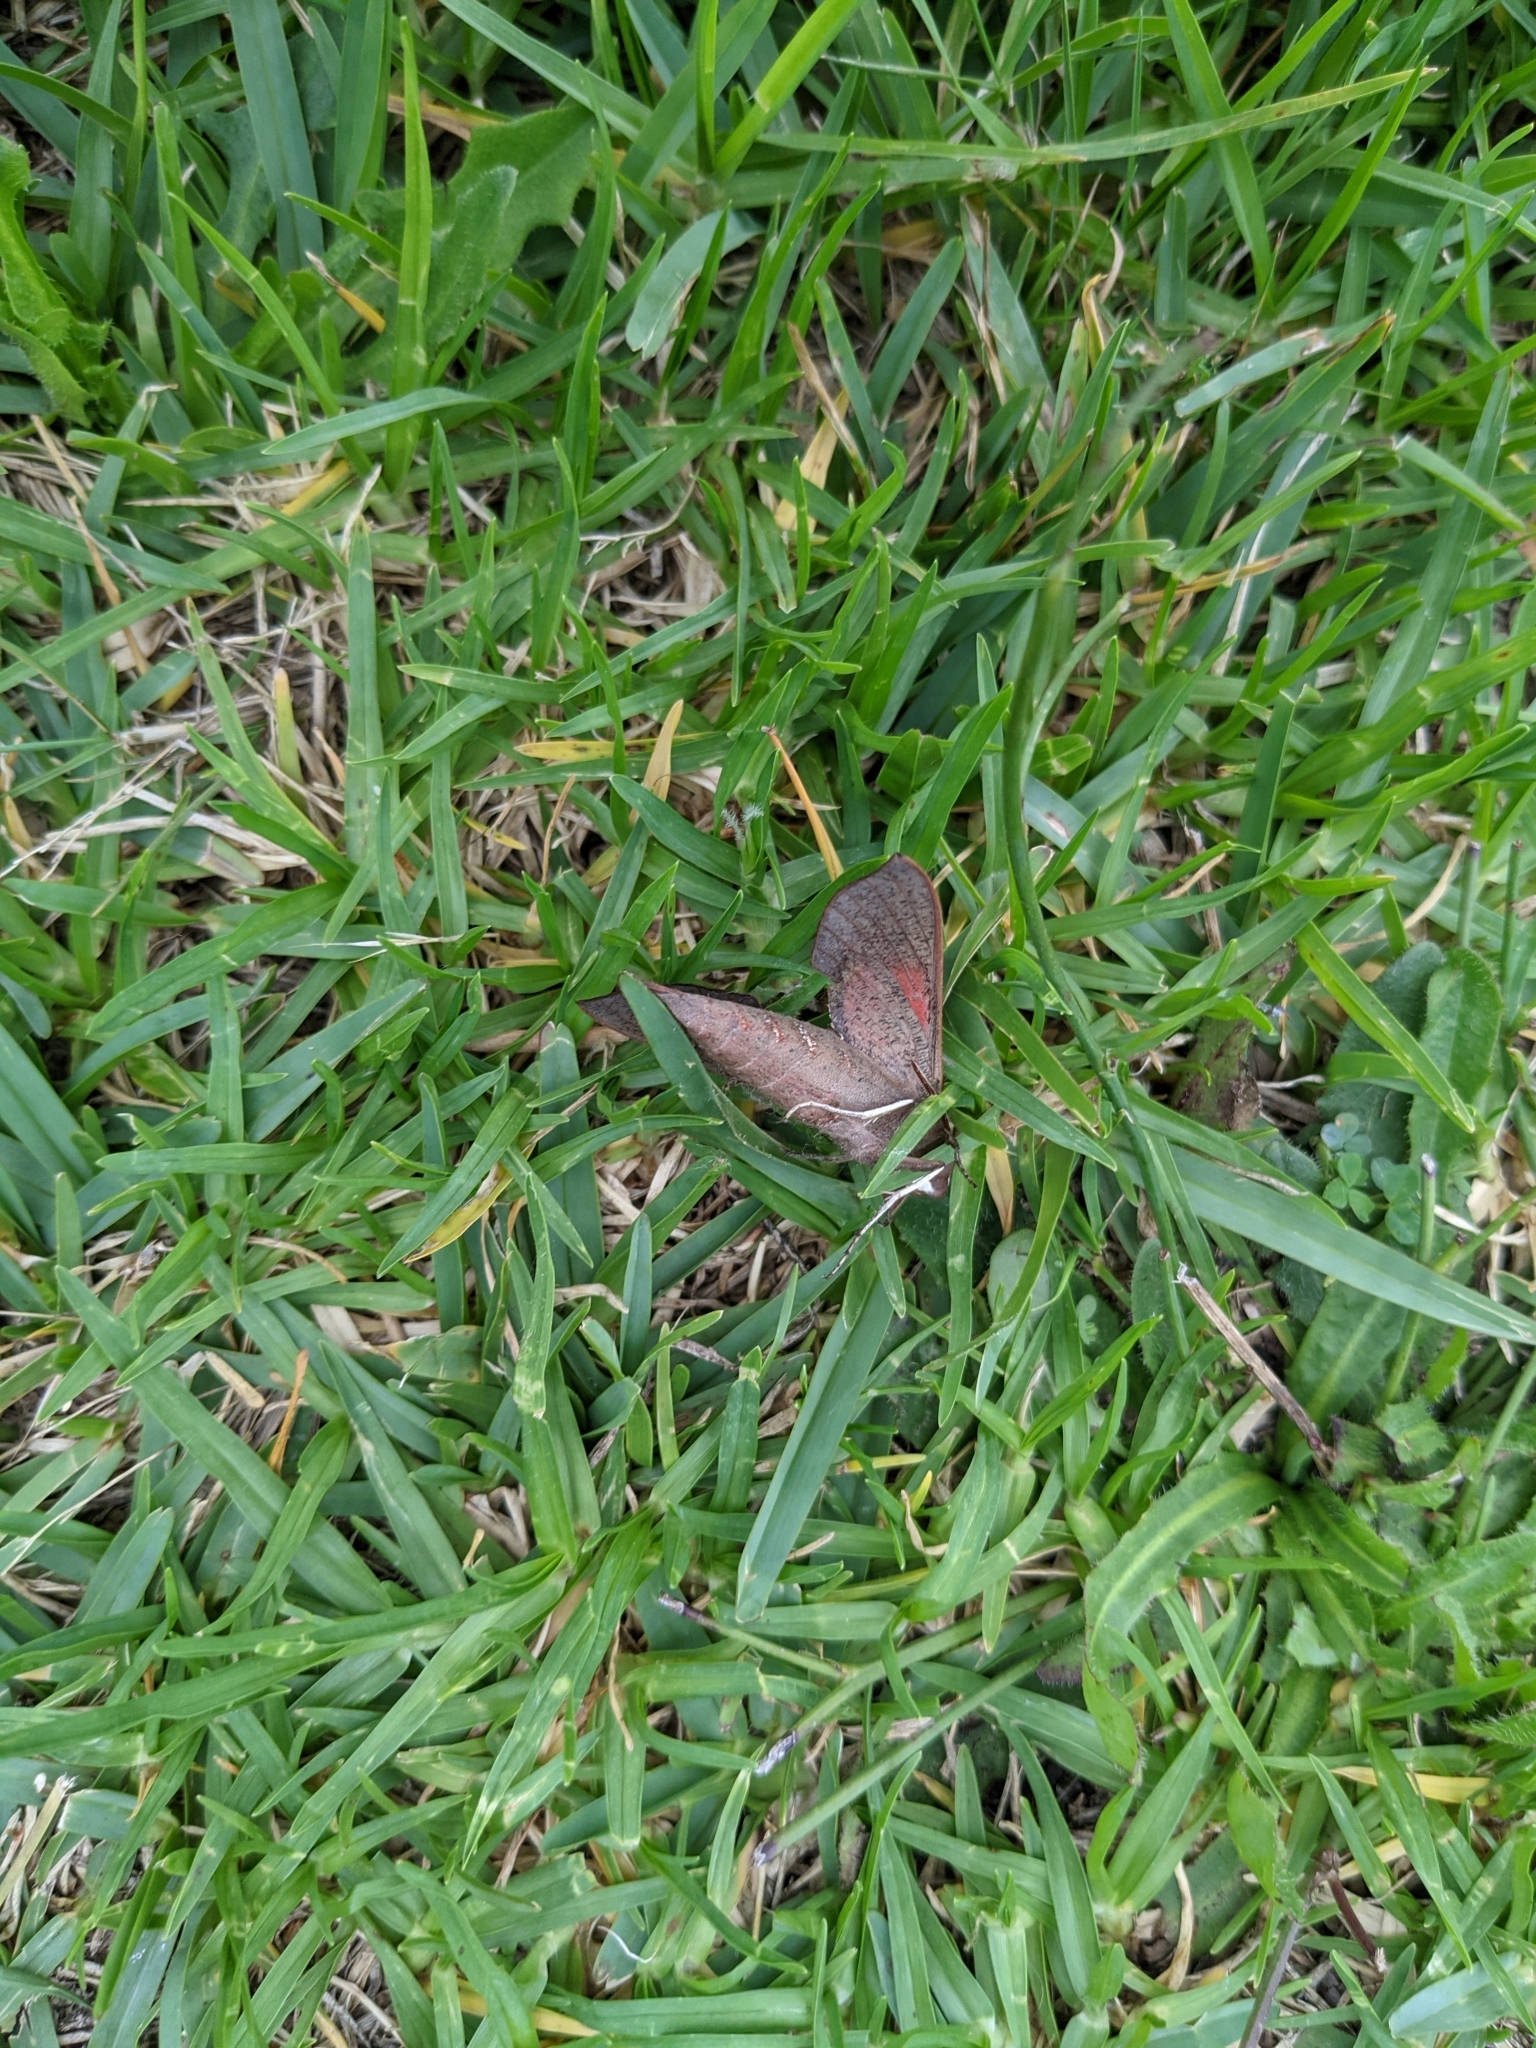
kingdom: Animalia
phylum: Arthropoda
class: Insecta
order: Lepidoptera
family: Sphingidae
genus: Hippotion
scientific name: Hippotion scrofa
